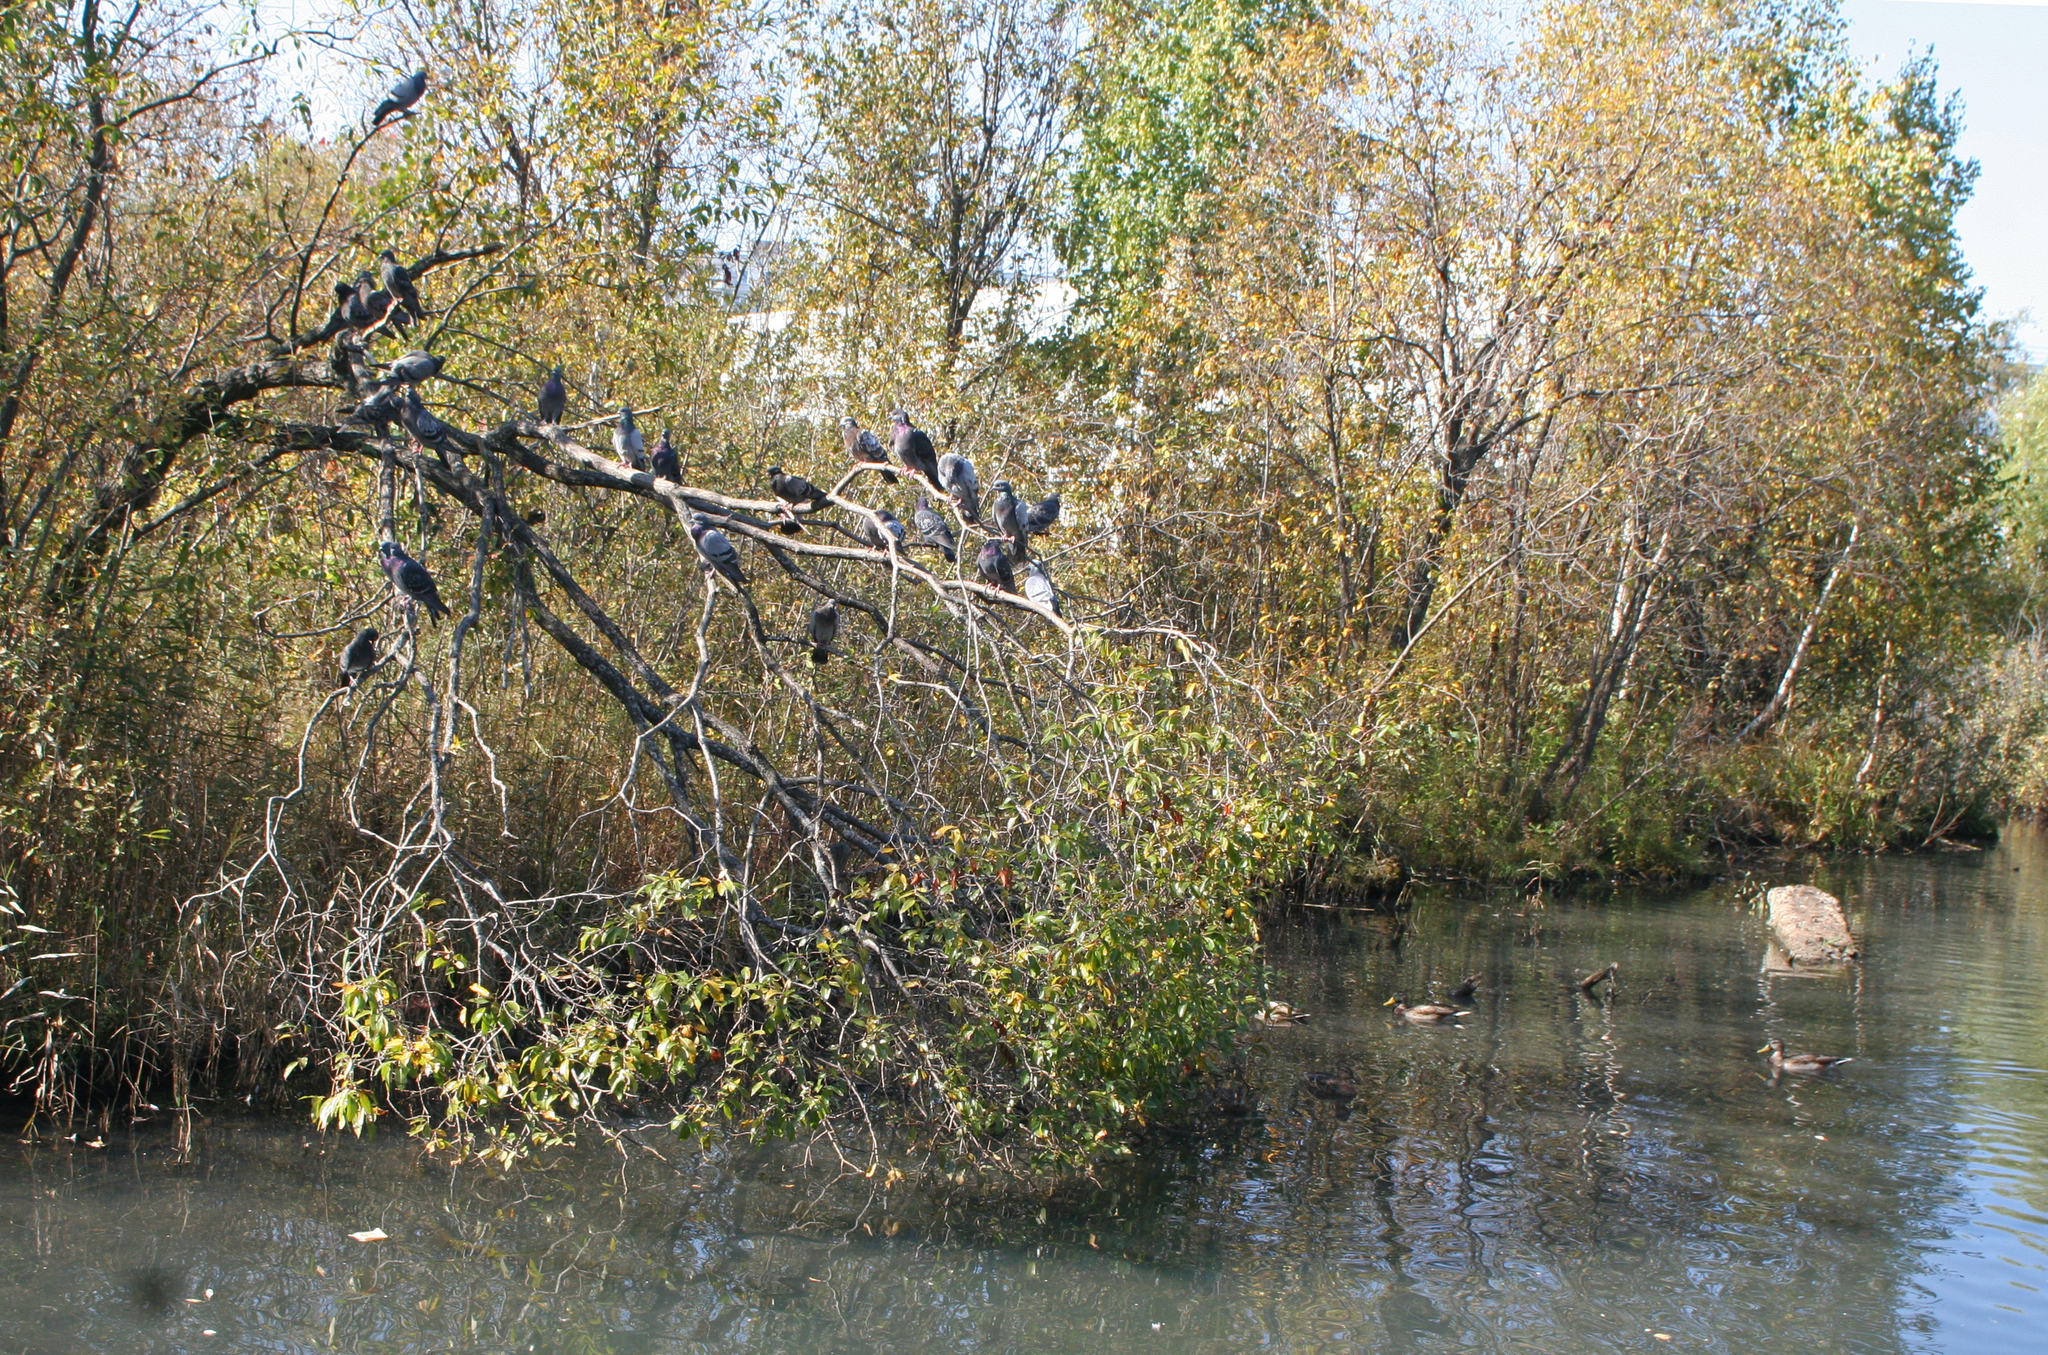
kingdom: Animalia
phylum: Chordata
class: Aves
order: Columbiformes
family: Columbidae
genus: Columba
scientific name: Columba livia
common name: Rock pigeon
